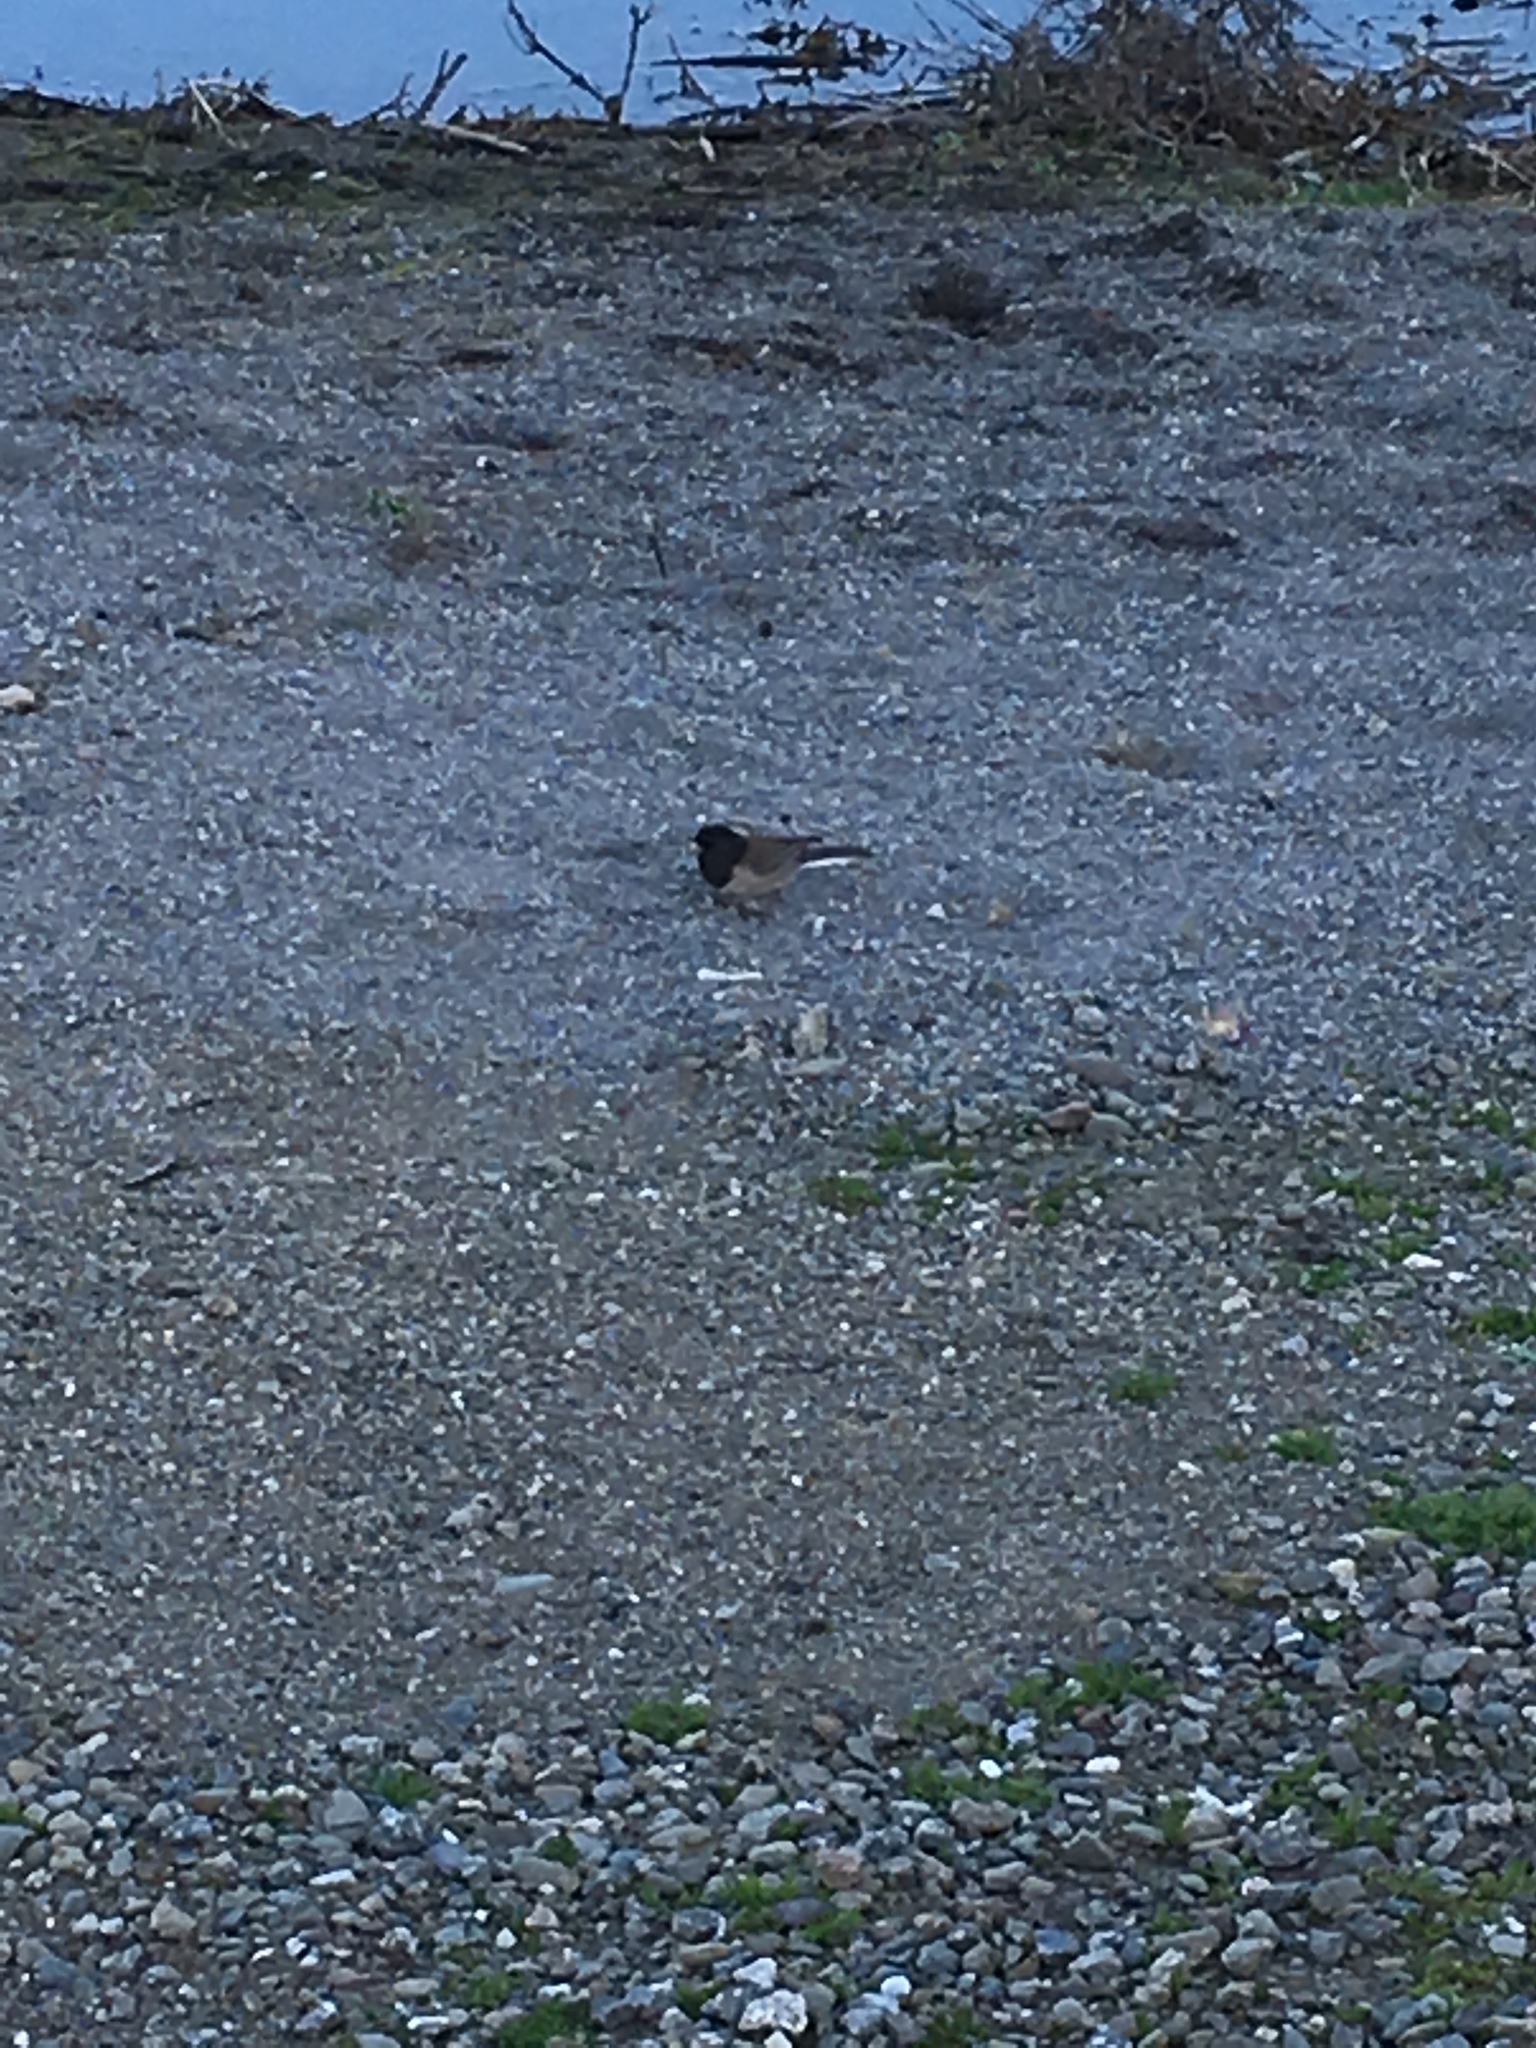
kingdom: Animalia
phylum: Chordata
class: Aves
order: Passeriformes
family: Passerellidae
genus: Junco
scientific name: Junco hyemalis
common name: Dark-eyed junco
